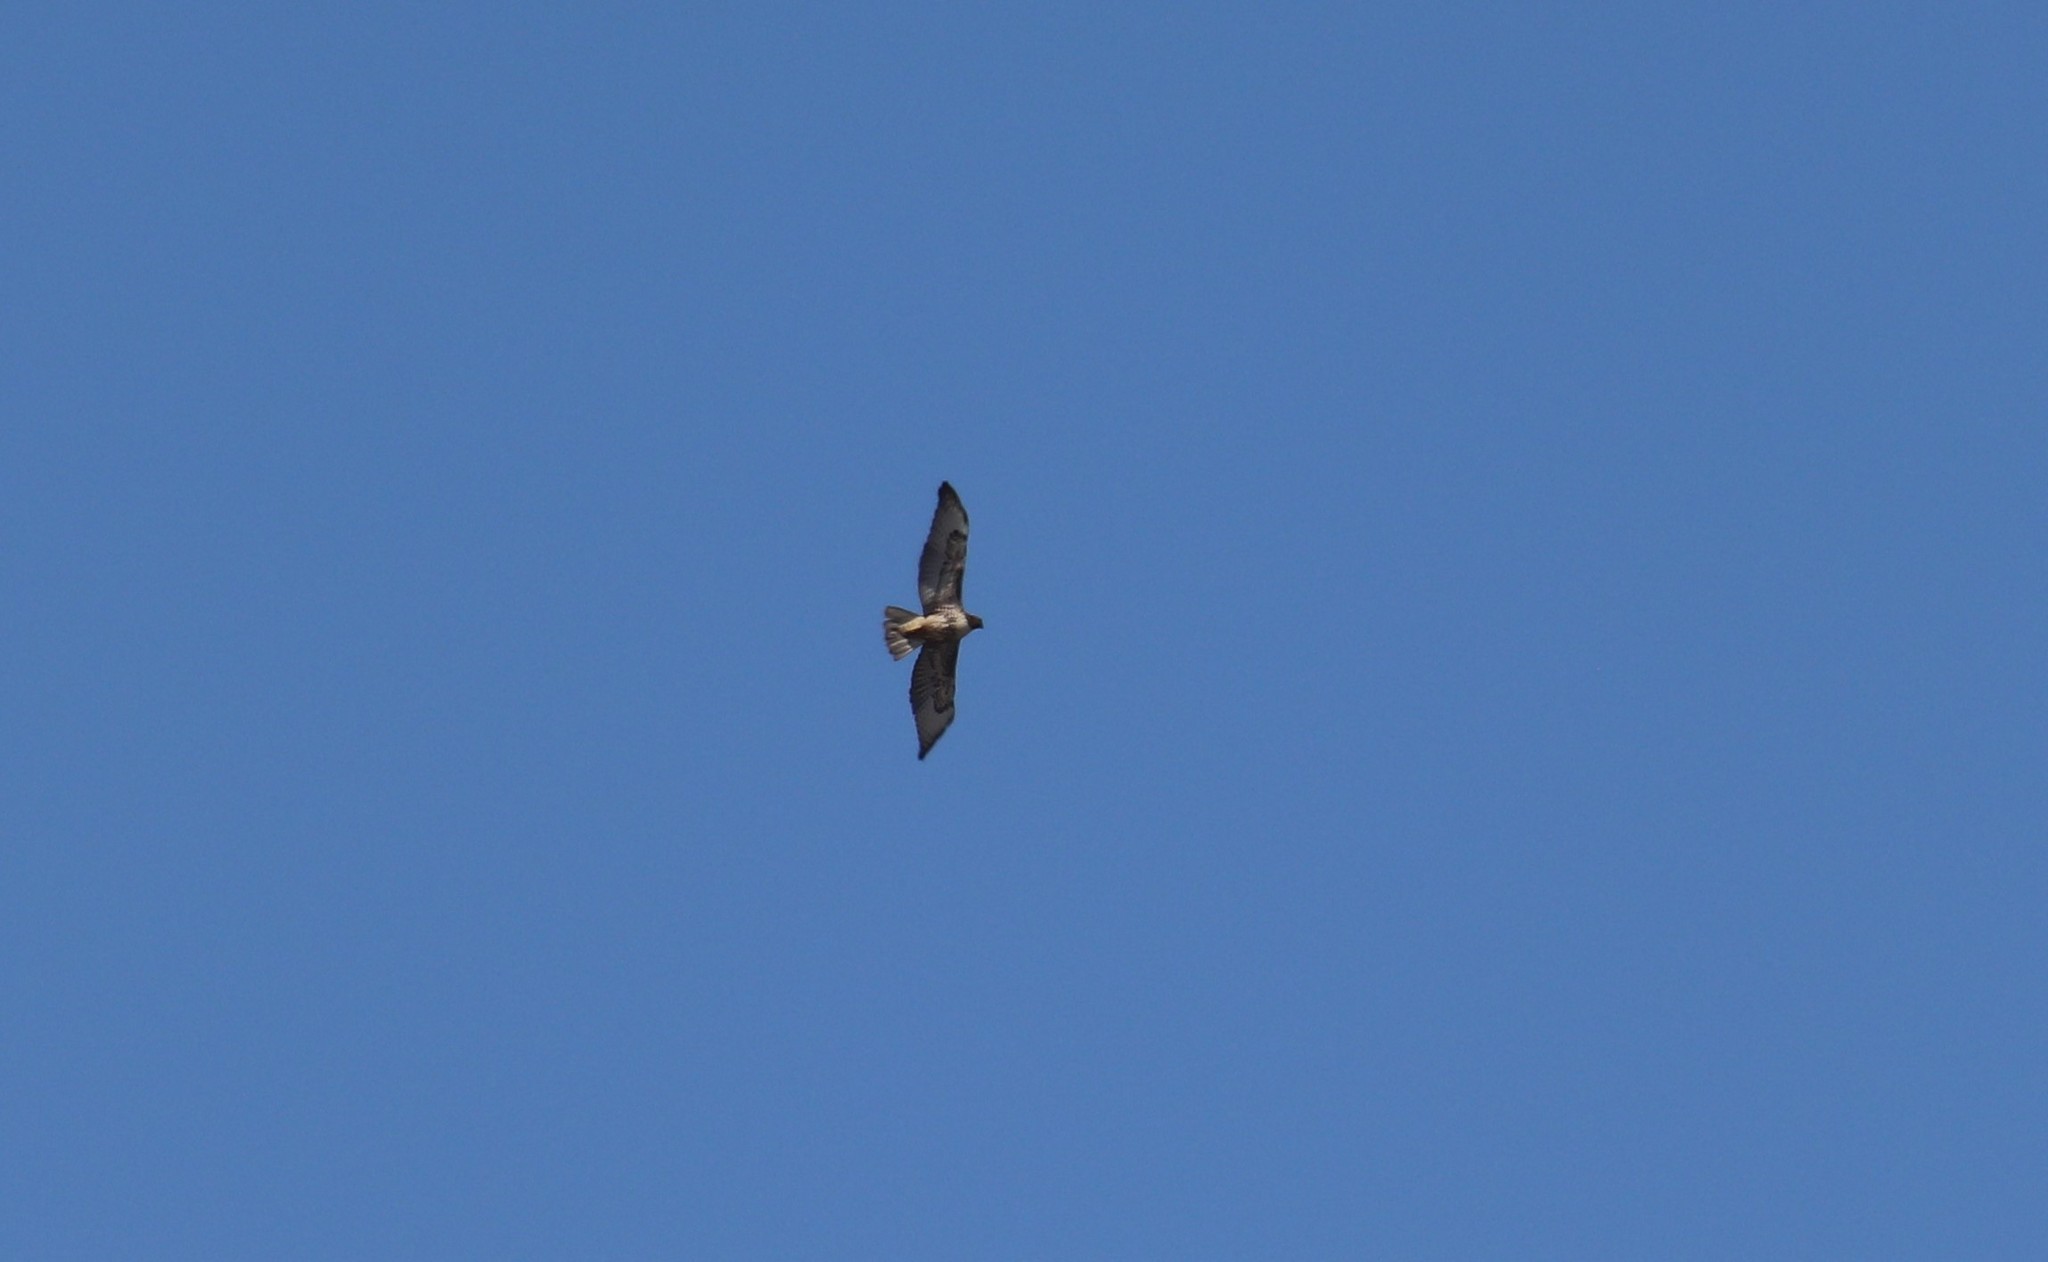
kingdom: Animalia
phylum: Chordata
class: Aves
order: Accipitriformes
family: Accipitridae
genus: Buteo
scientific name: Buteo jamaicensis
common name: Red-tailed hawk
